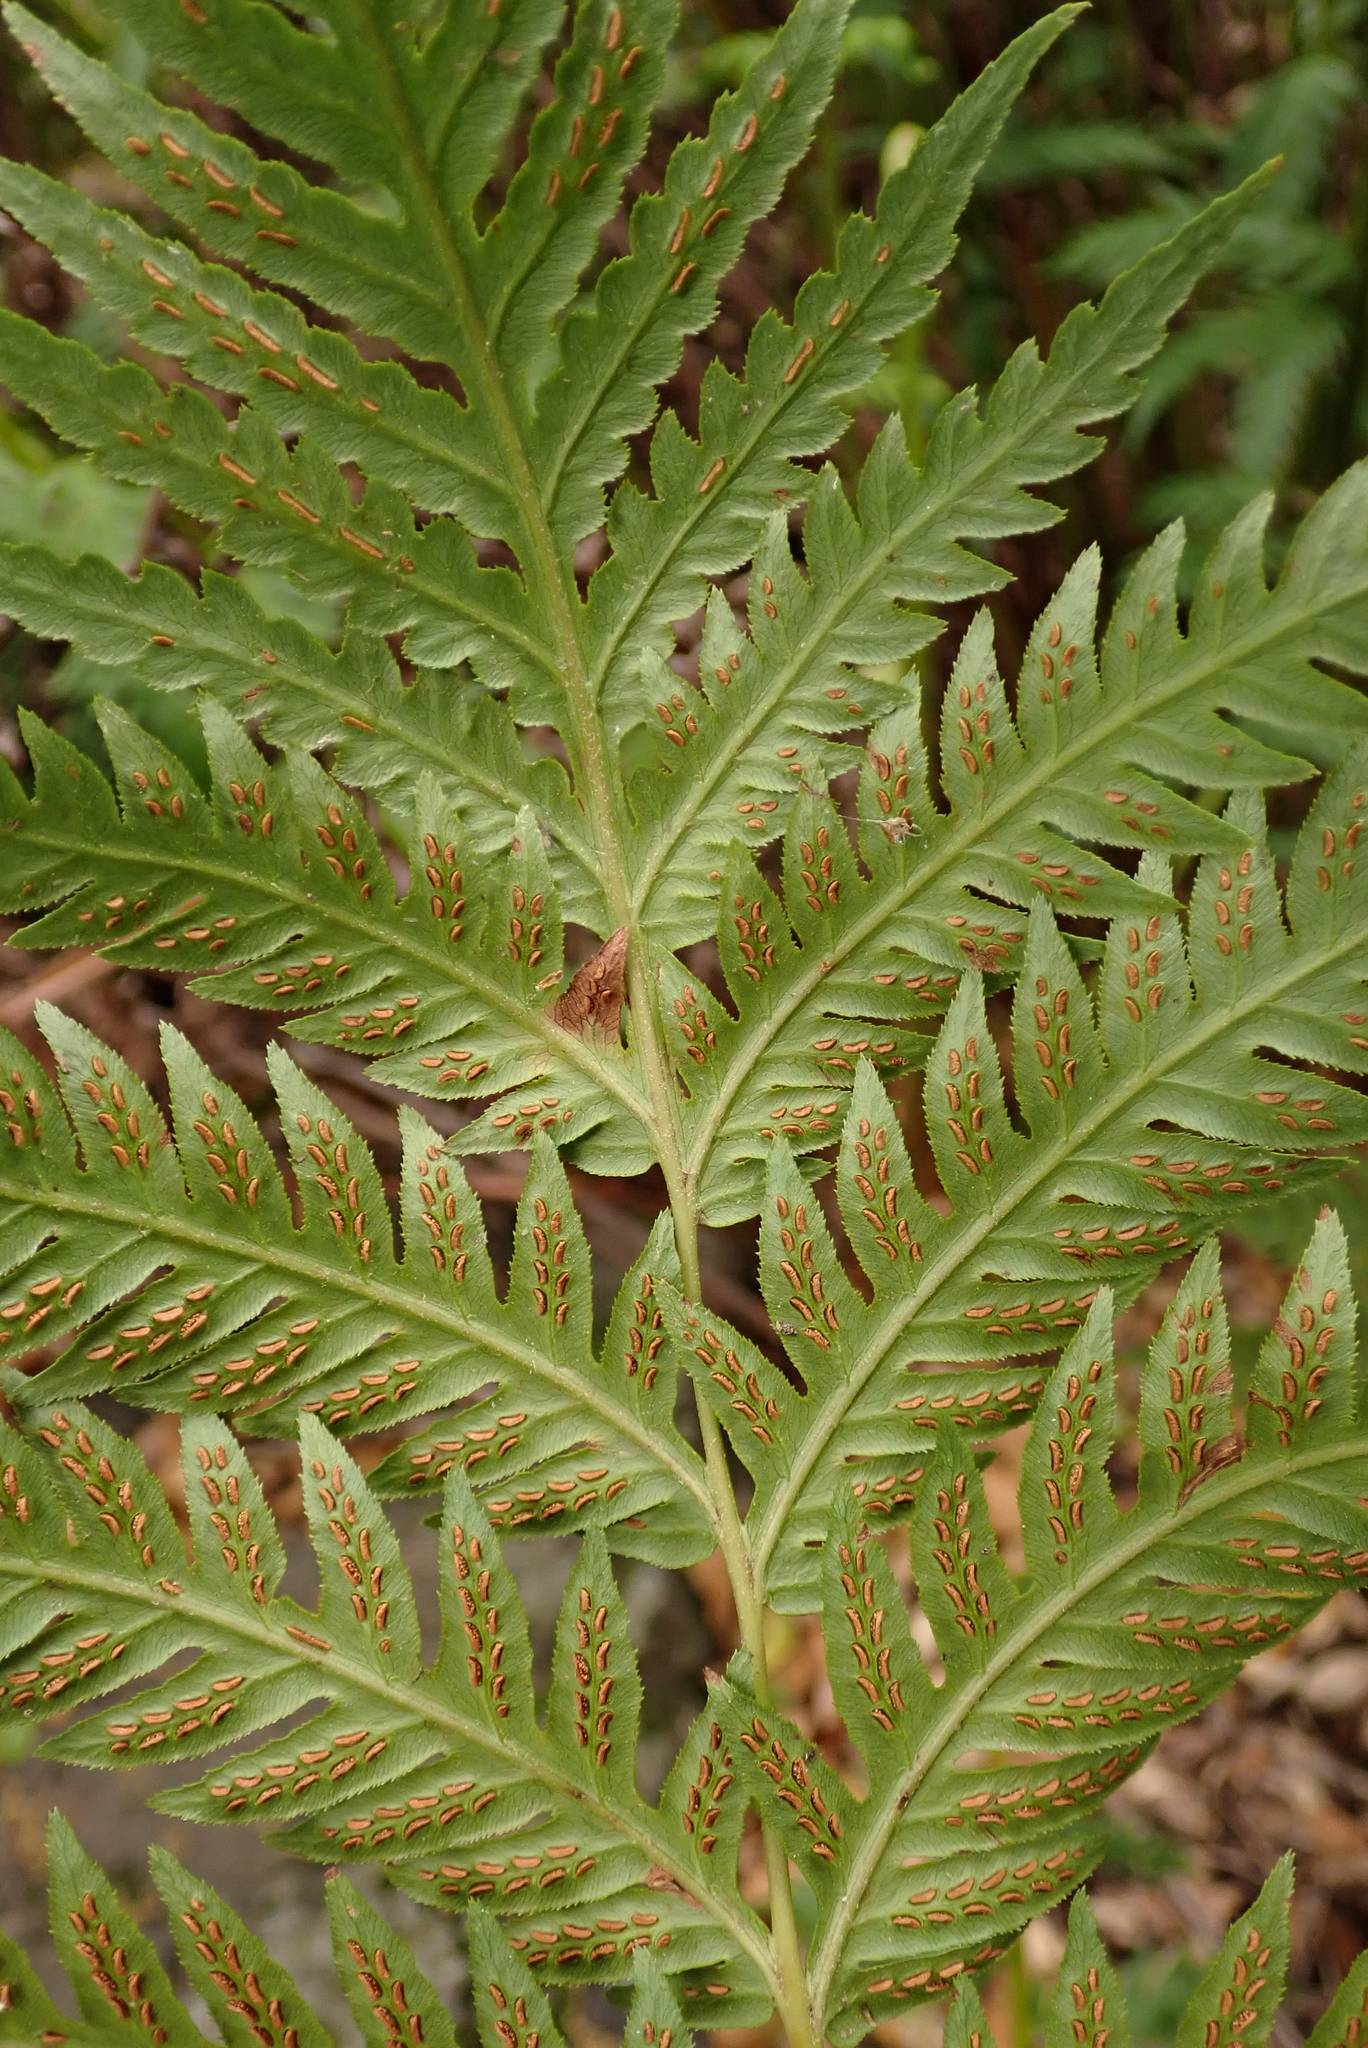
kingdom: Plantae
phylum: Tracheophyta
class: Polypodiopsida
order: Polypodiales
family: Blechnaceae
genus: Woodwardia
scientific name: Woodwardia fimbriata
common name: Giant chain fern
